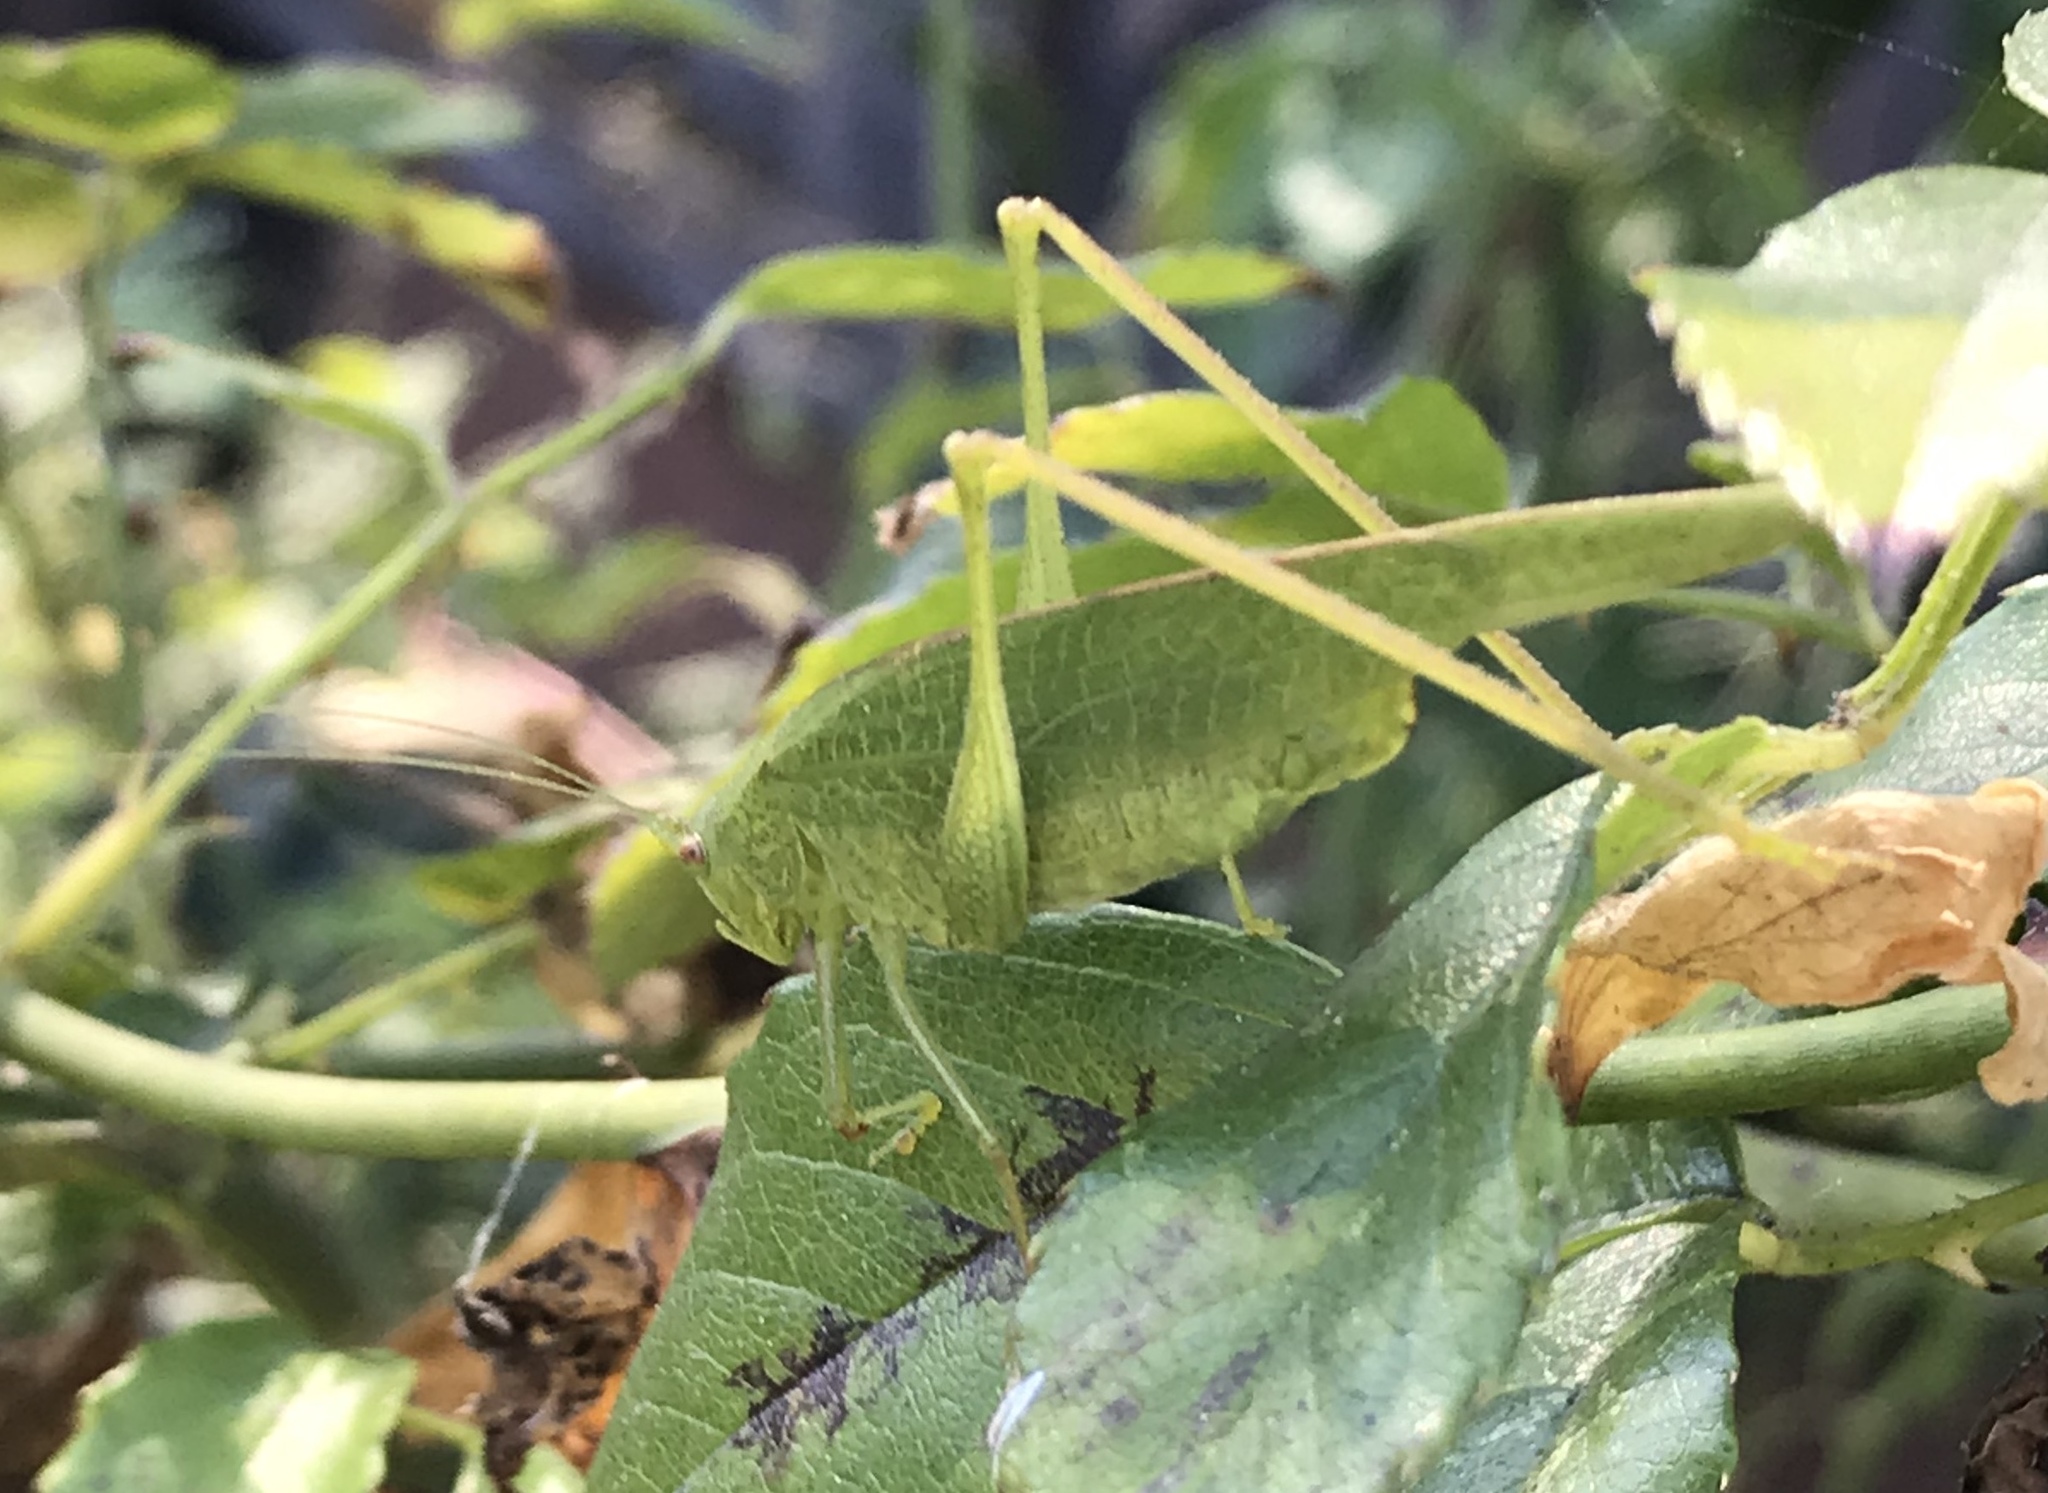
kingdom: Animalia
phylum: Arthropoda
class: Insecta
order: Orthoptera
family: Tettigoniidae
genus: Phaneroptera
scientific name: Phaneroptera nana
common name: Southern sickle bush-cricket
